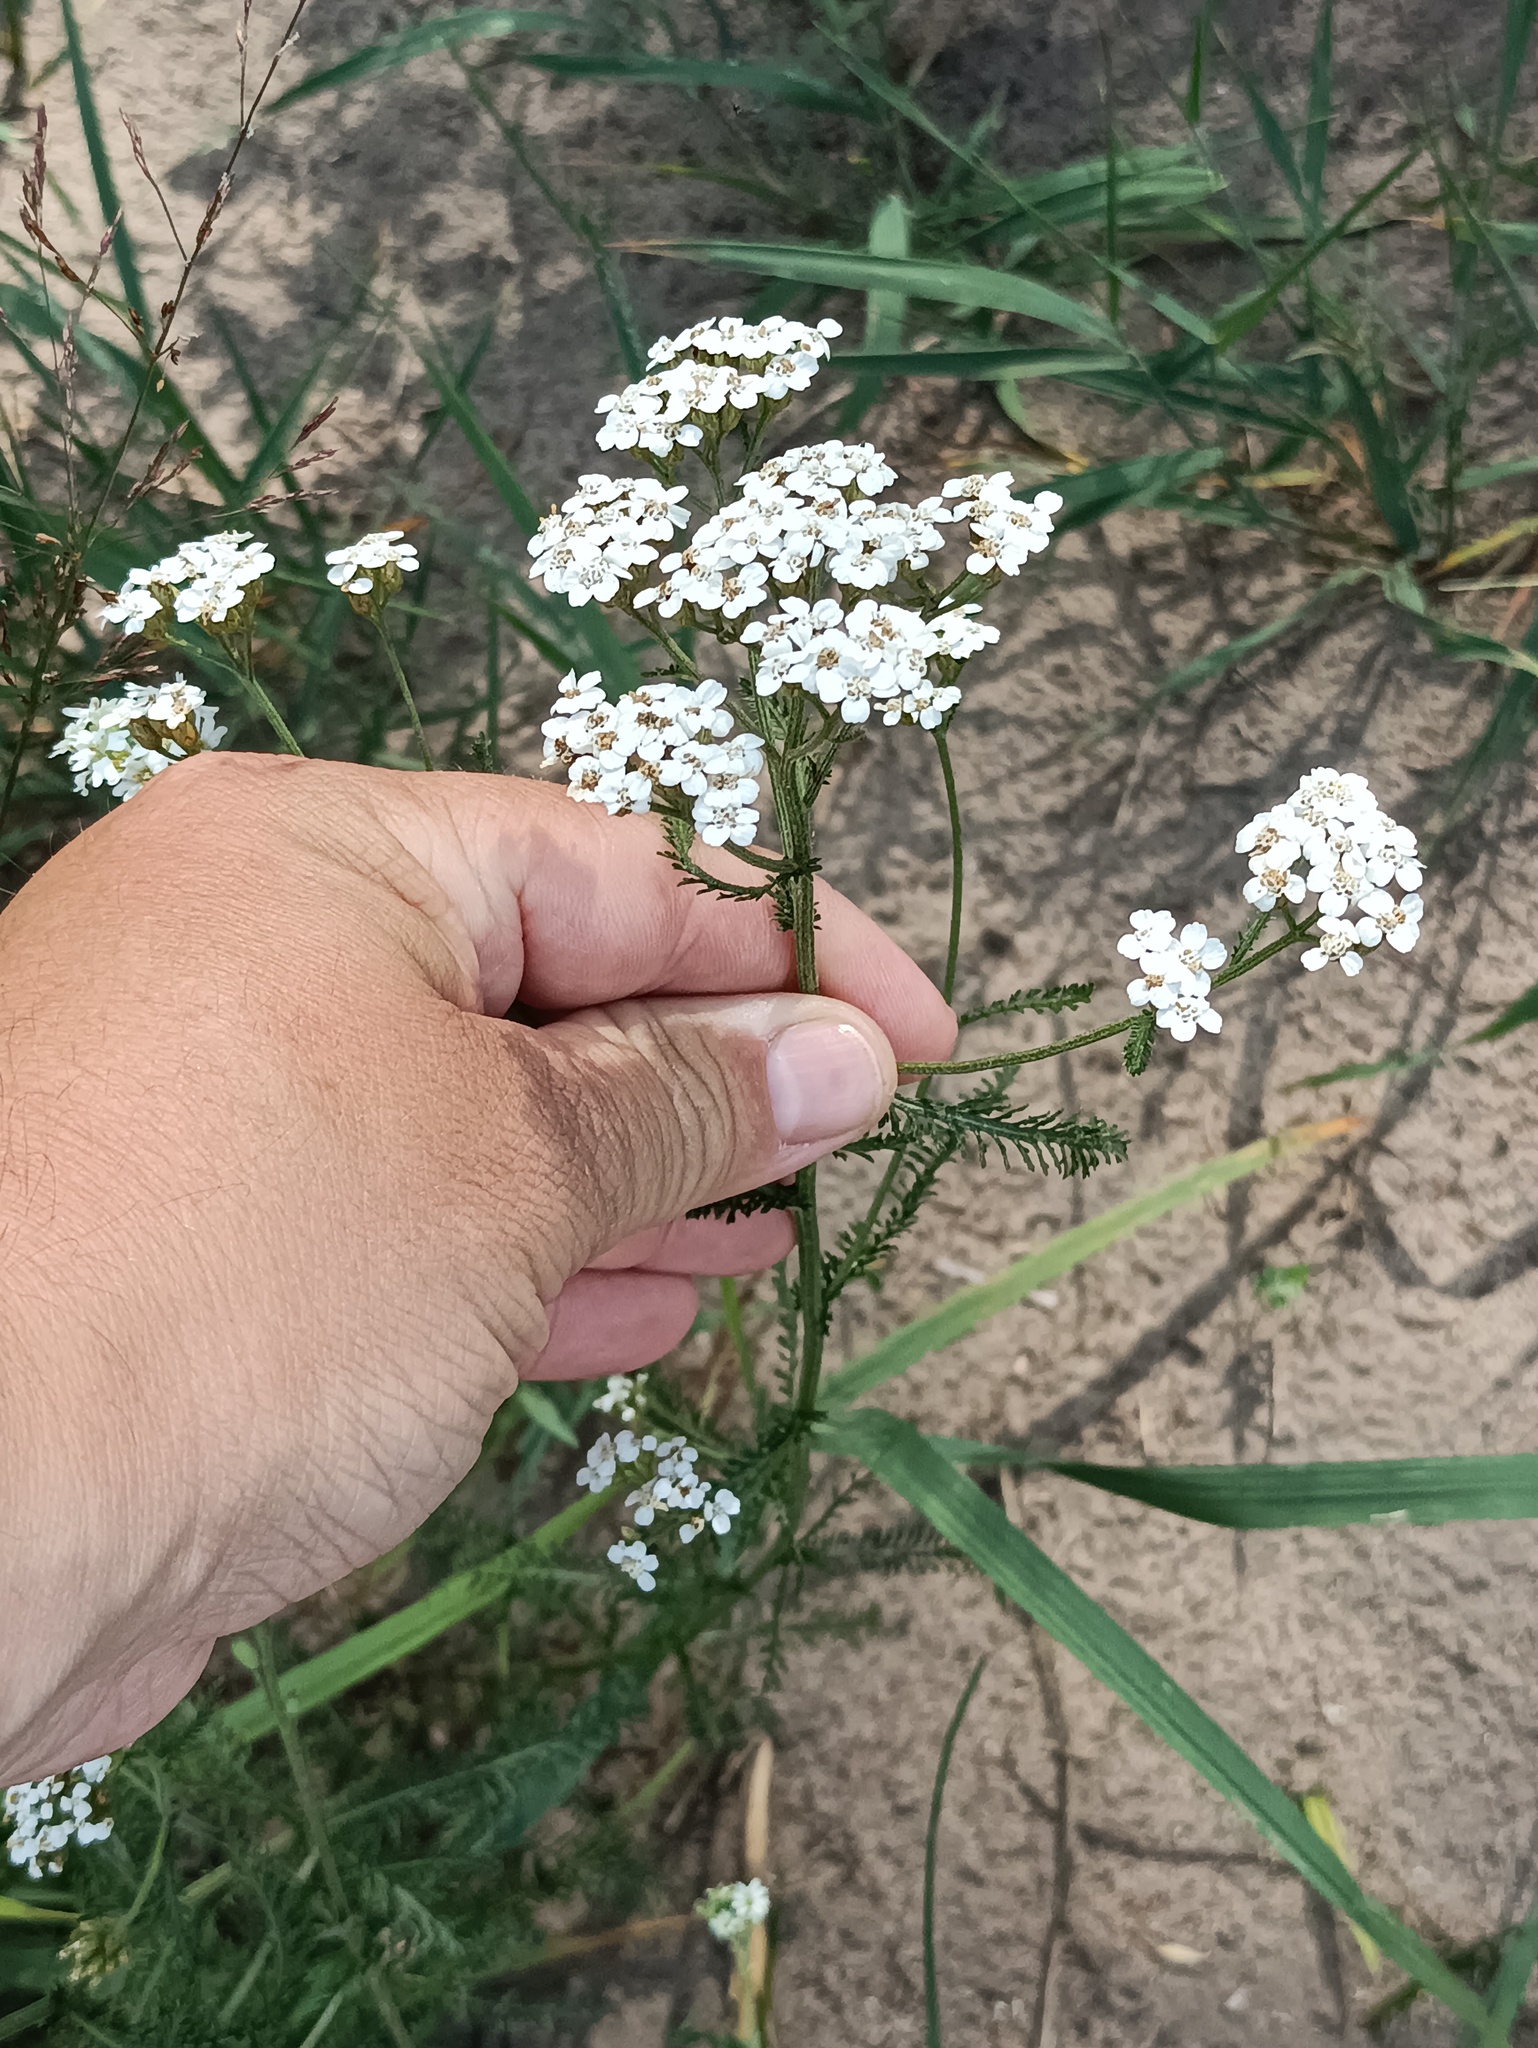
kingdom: Plantae
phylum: Tracheophyta
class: Magnoliopsida
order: Asterales
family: Asteraceae
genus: Achillea
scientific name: Achillea millefolium
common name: Yarrow
